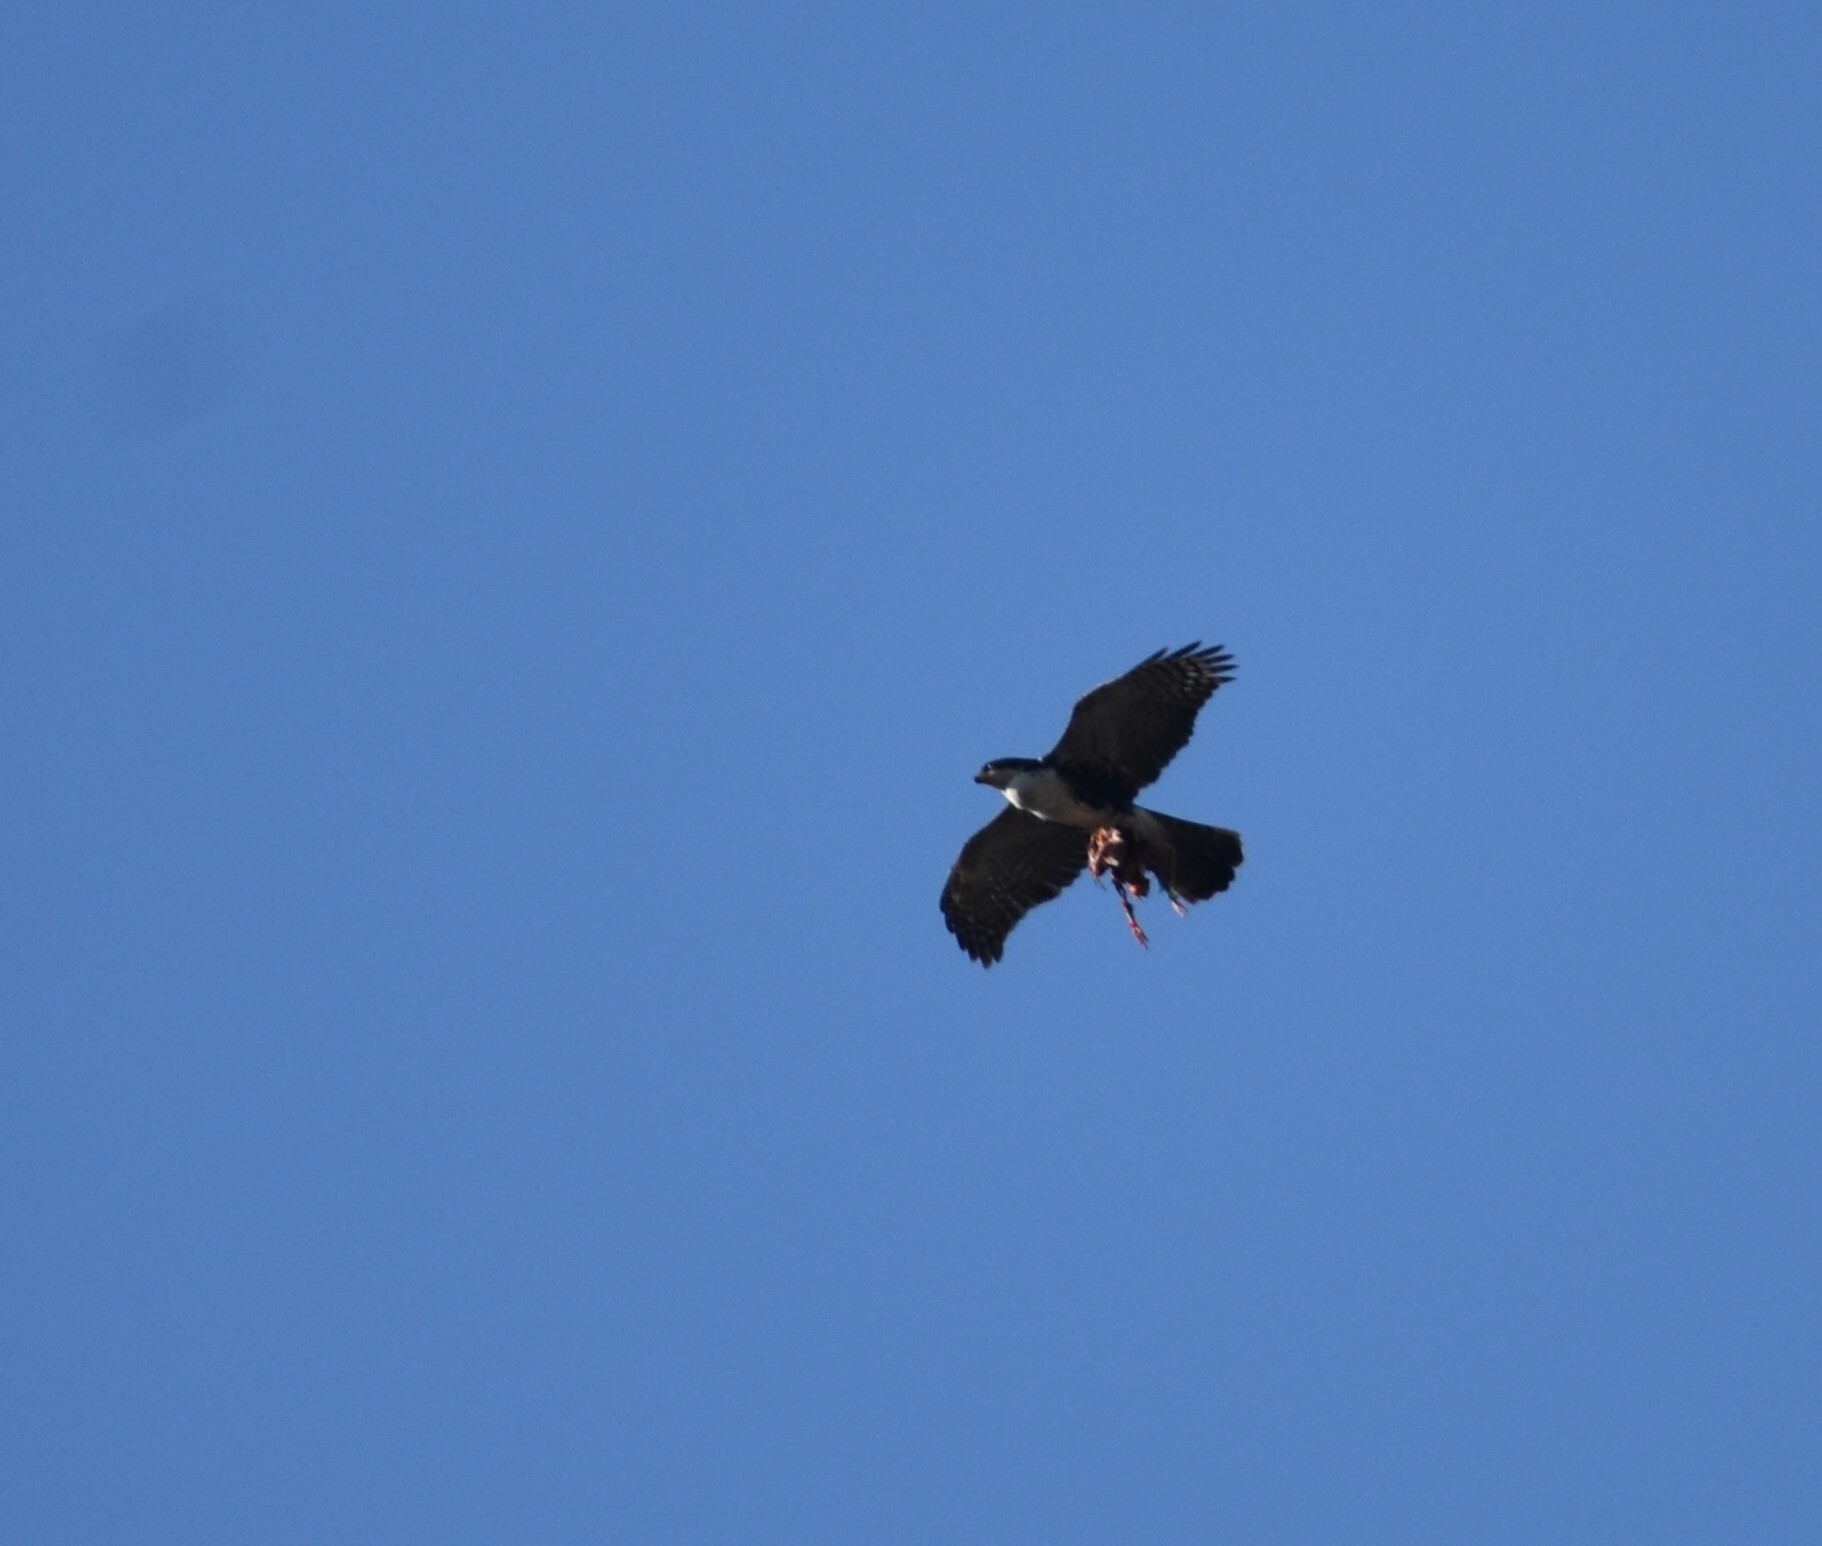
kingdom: Animalia
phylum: Chordata
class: Aves
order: Accipitriformes
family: Accipitridae
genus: Accipiter
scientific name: Accipiter melanoleucus
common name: Black sparrowhawk
